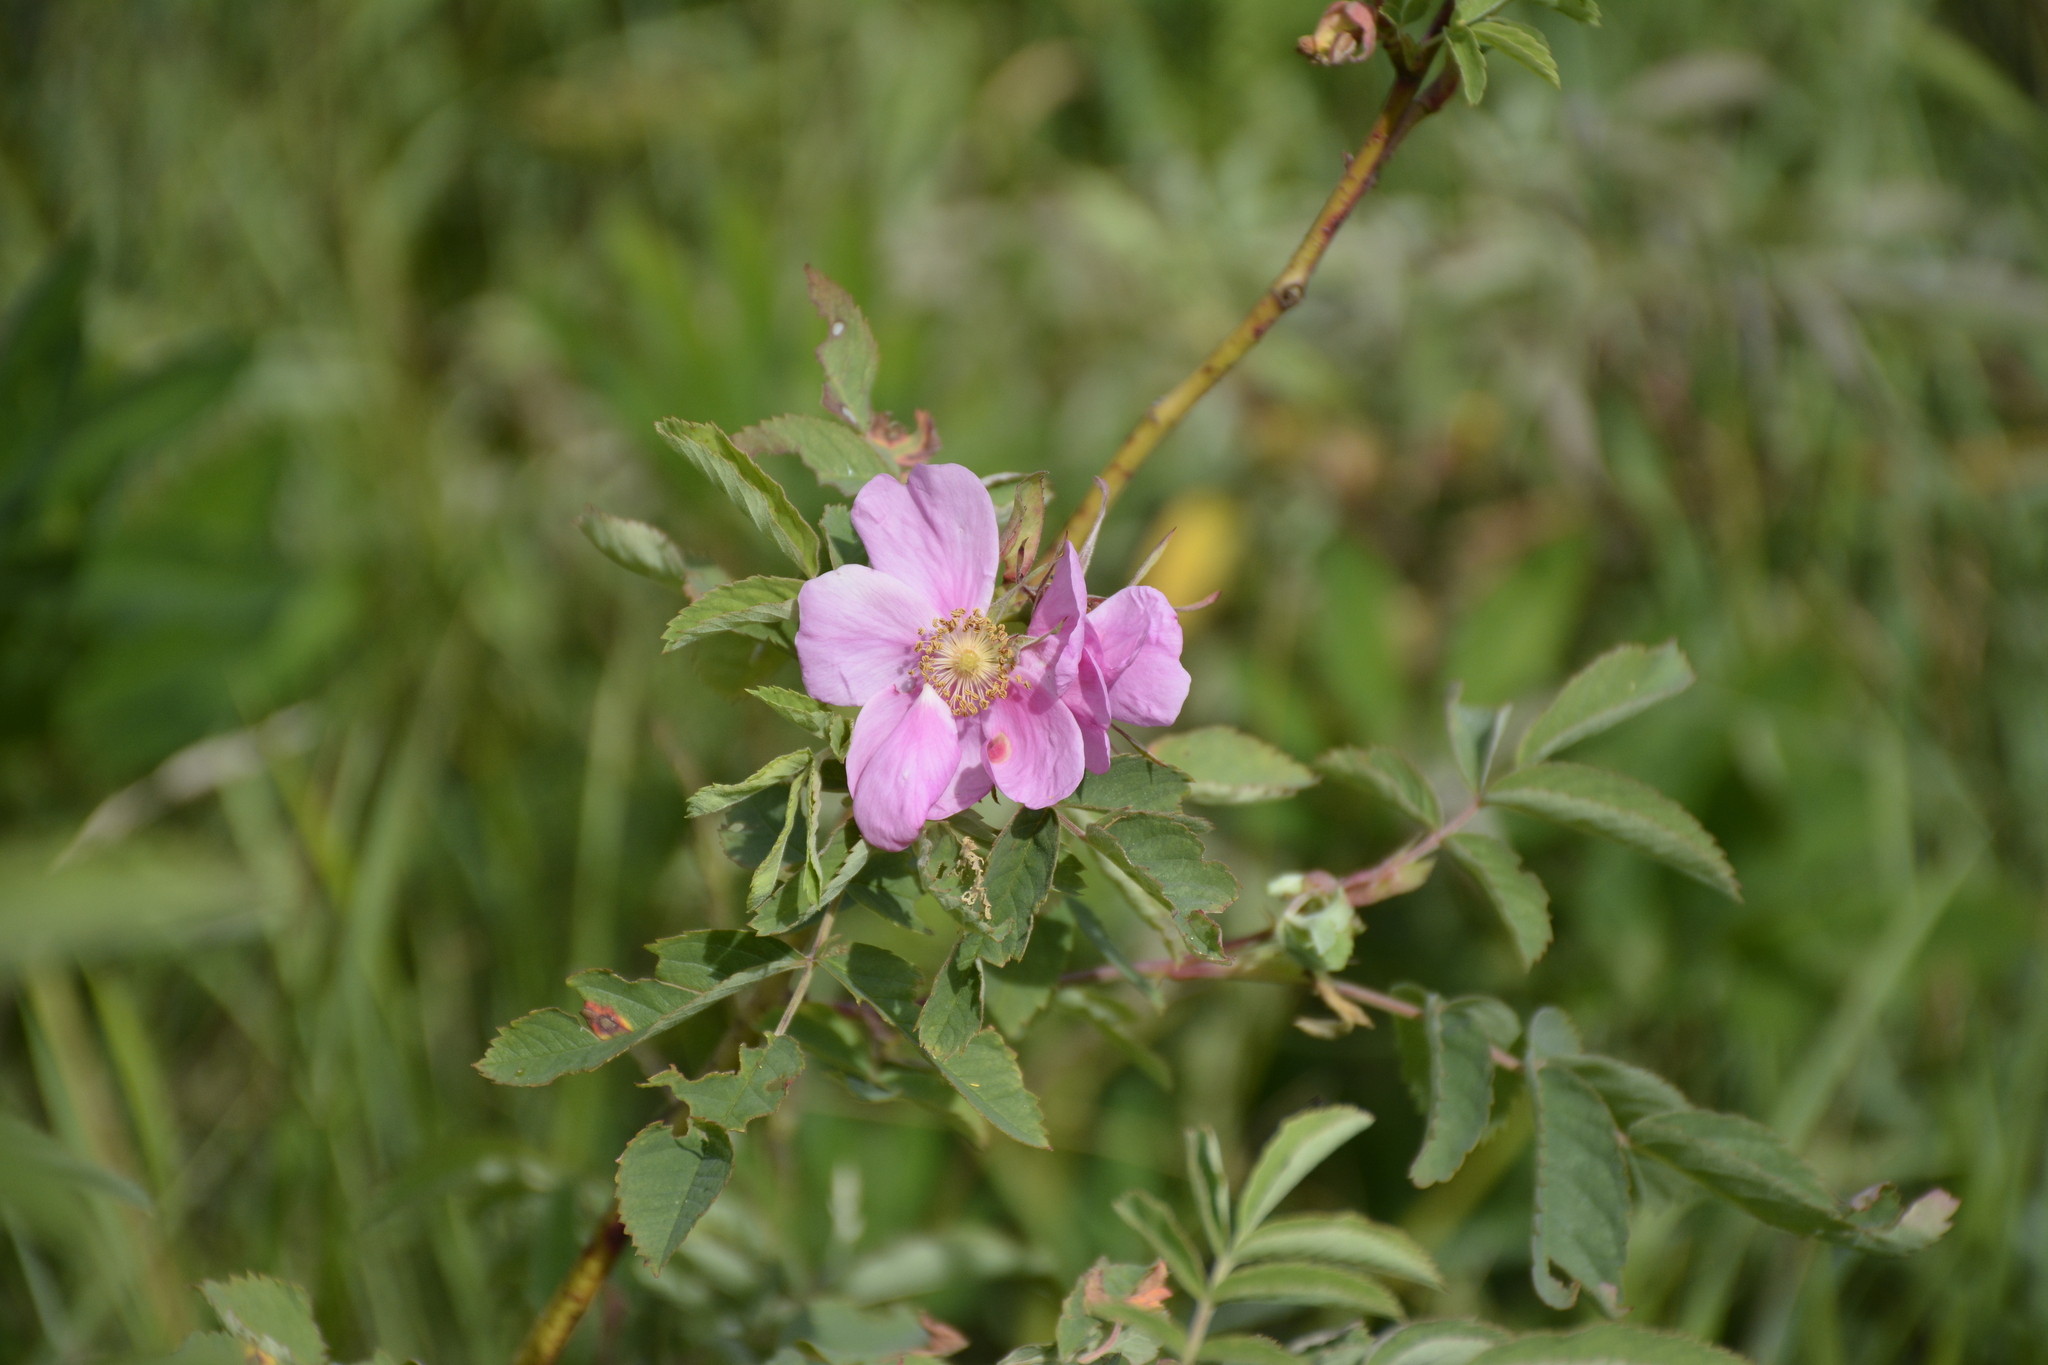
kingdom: Plantae
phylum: Tracheophyta
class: Magnoliopsida
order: Rosales
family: Rosaceae
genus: Rosa
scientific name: Rosa majalis
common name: Cinnamon rose
